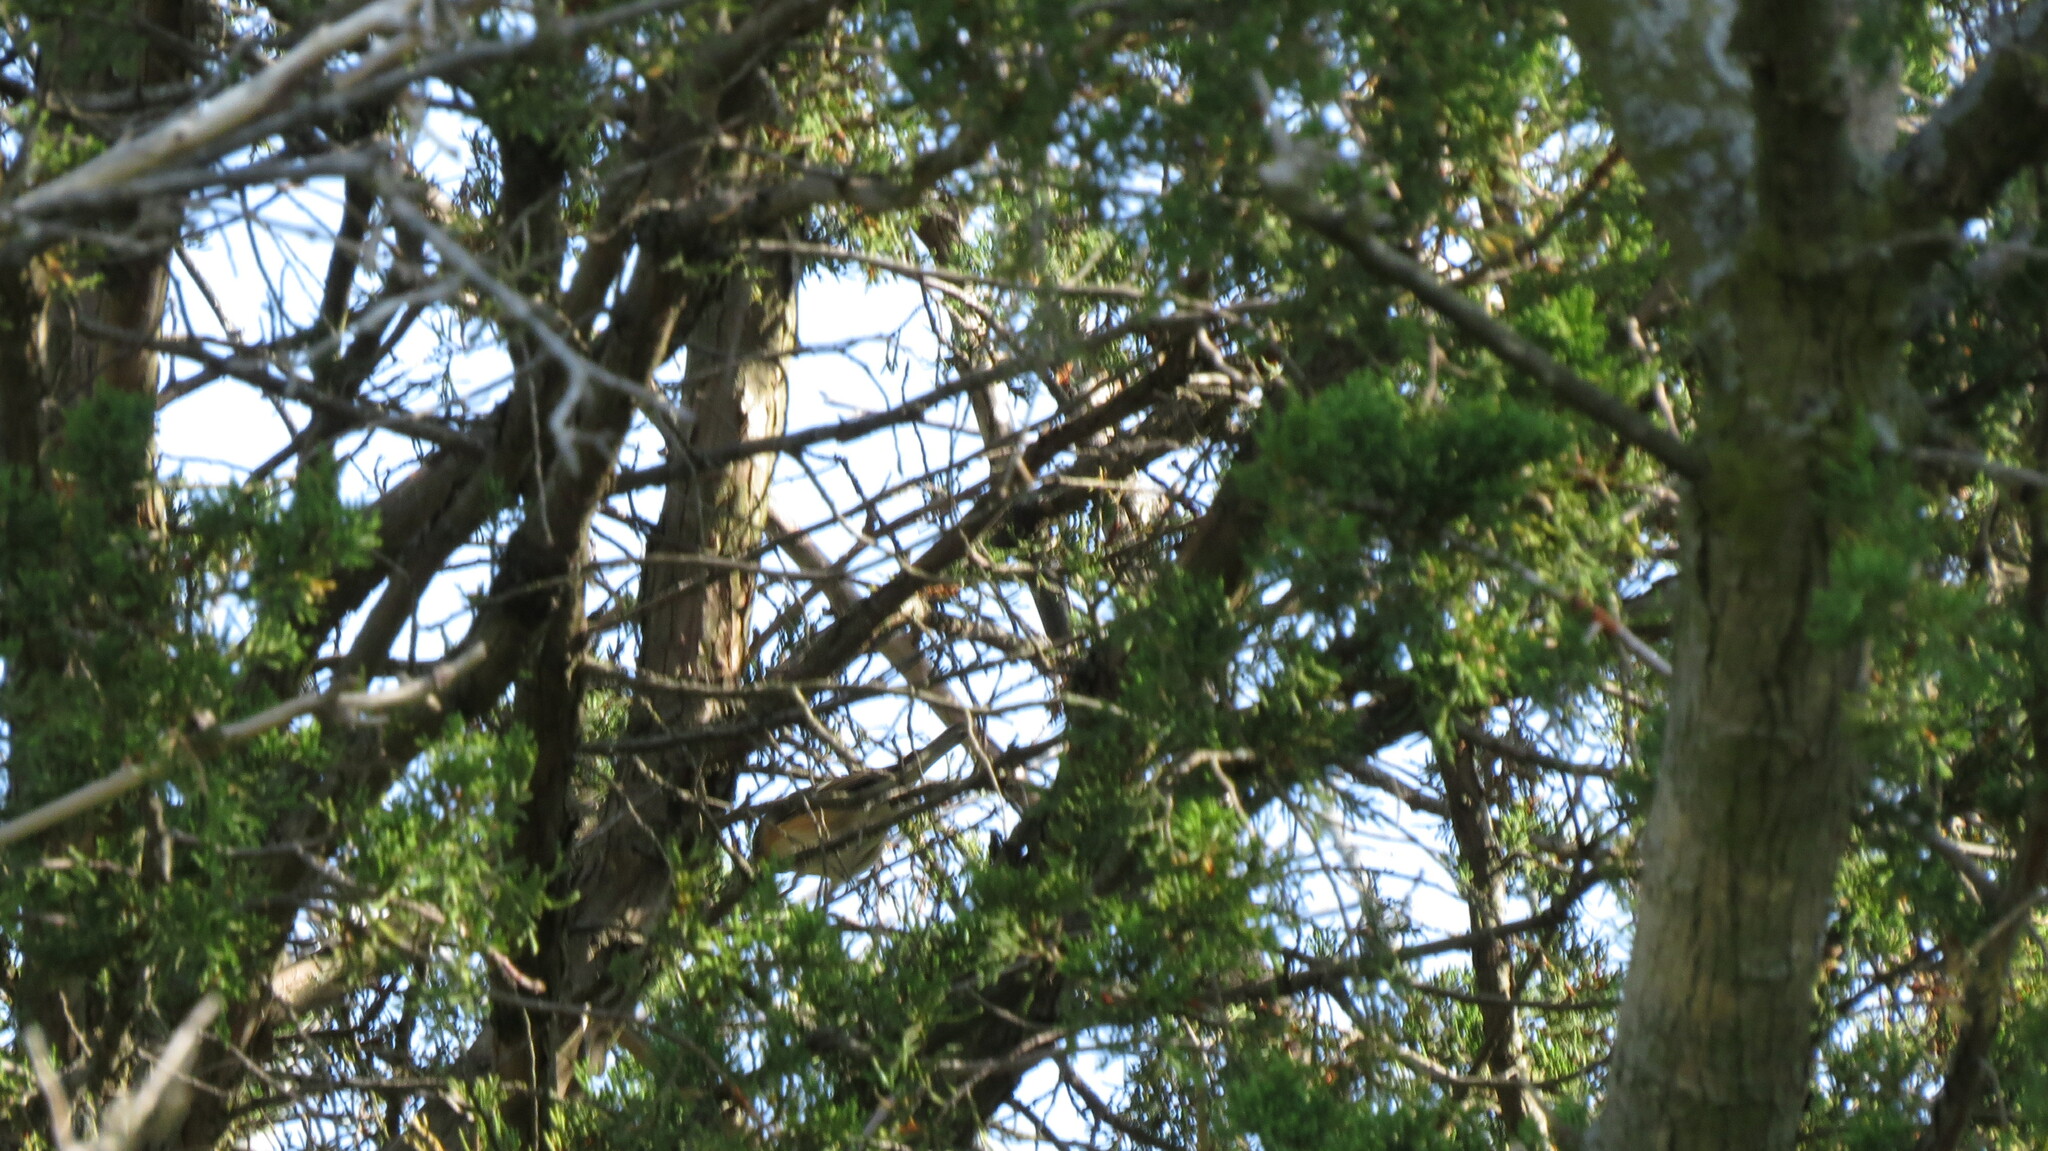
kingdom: Animalia
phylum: Chordata
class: Aves
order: Passeriformes
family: Parulidae
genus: Setophaga
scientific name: Setophaga castanea
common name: Bay-breasted warbler
